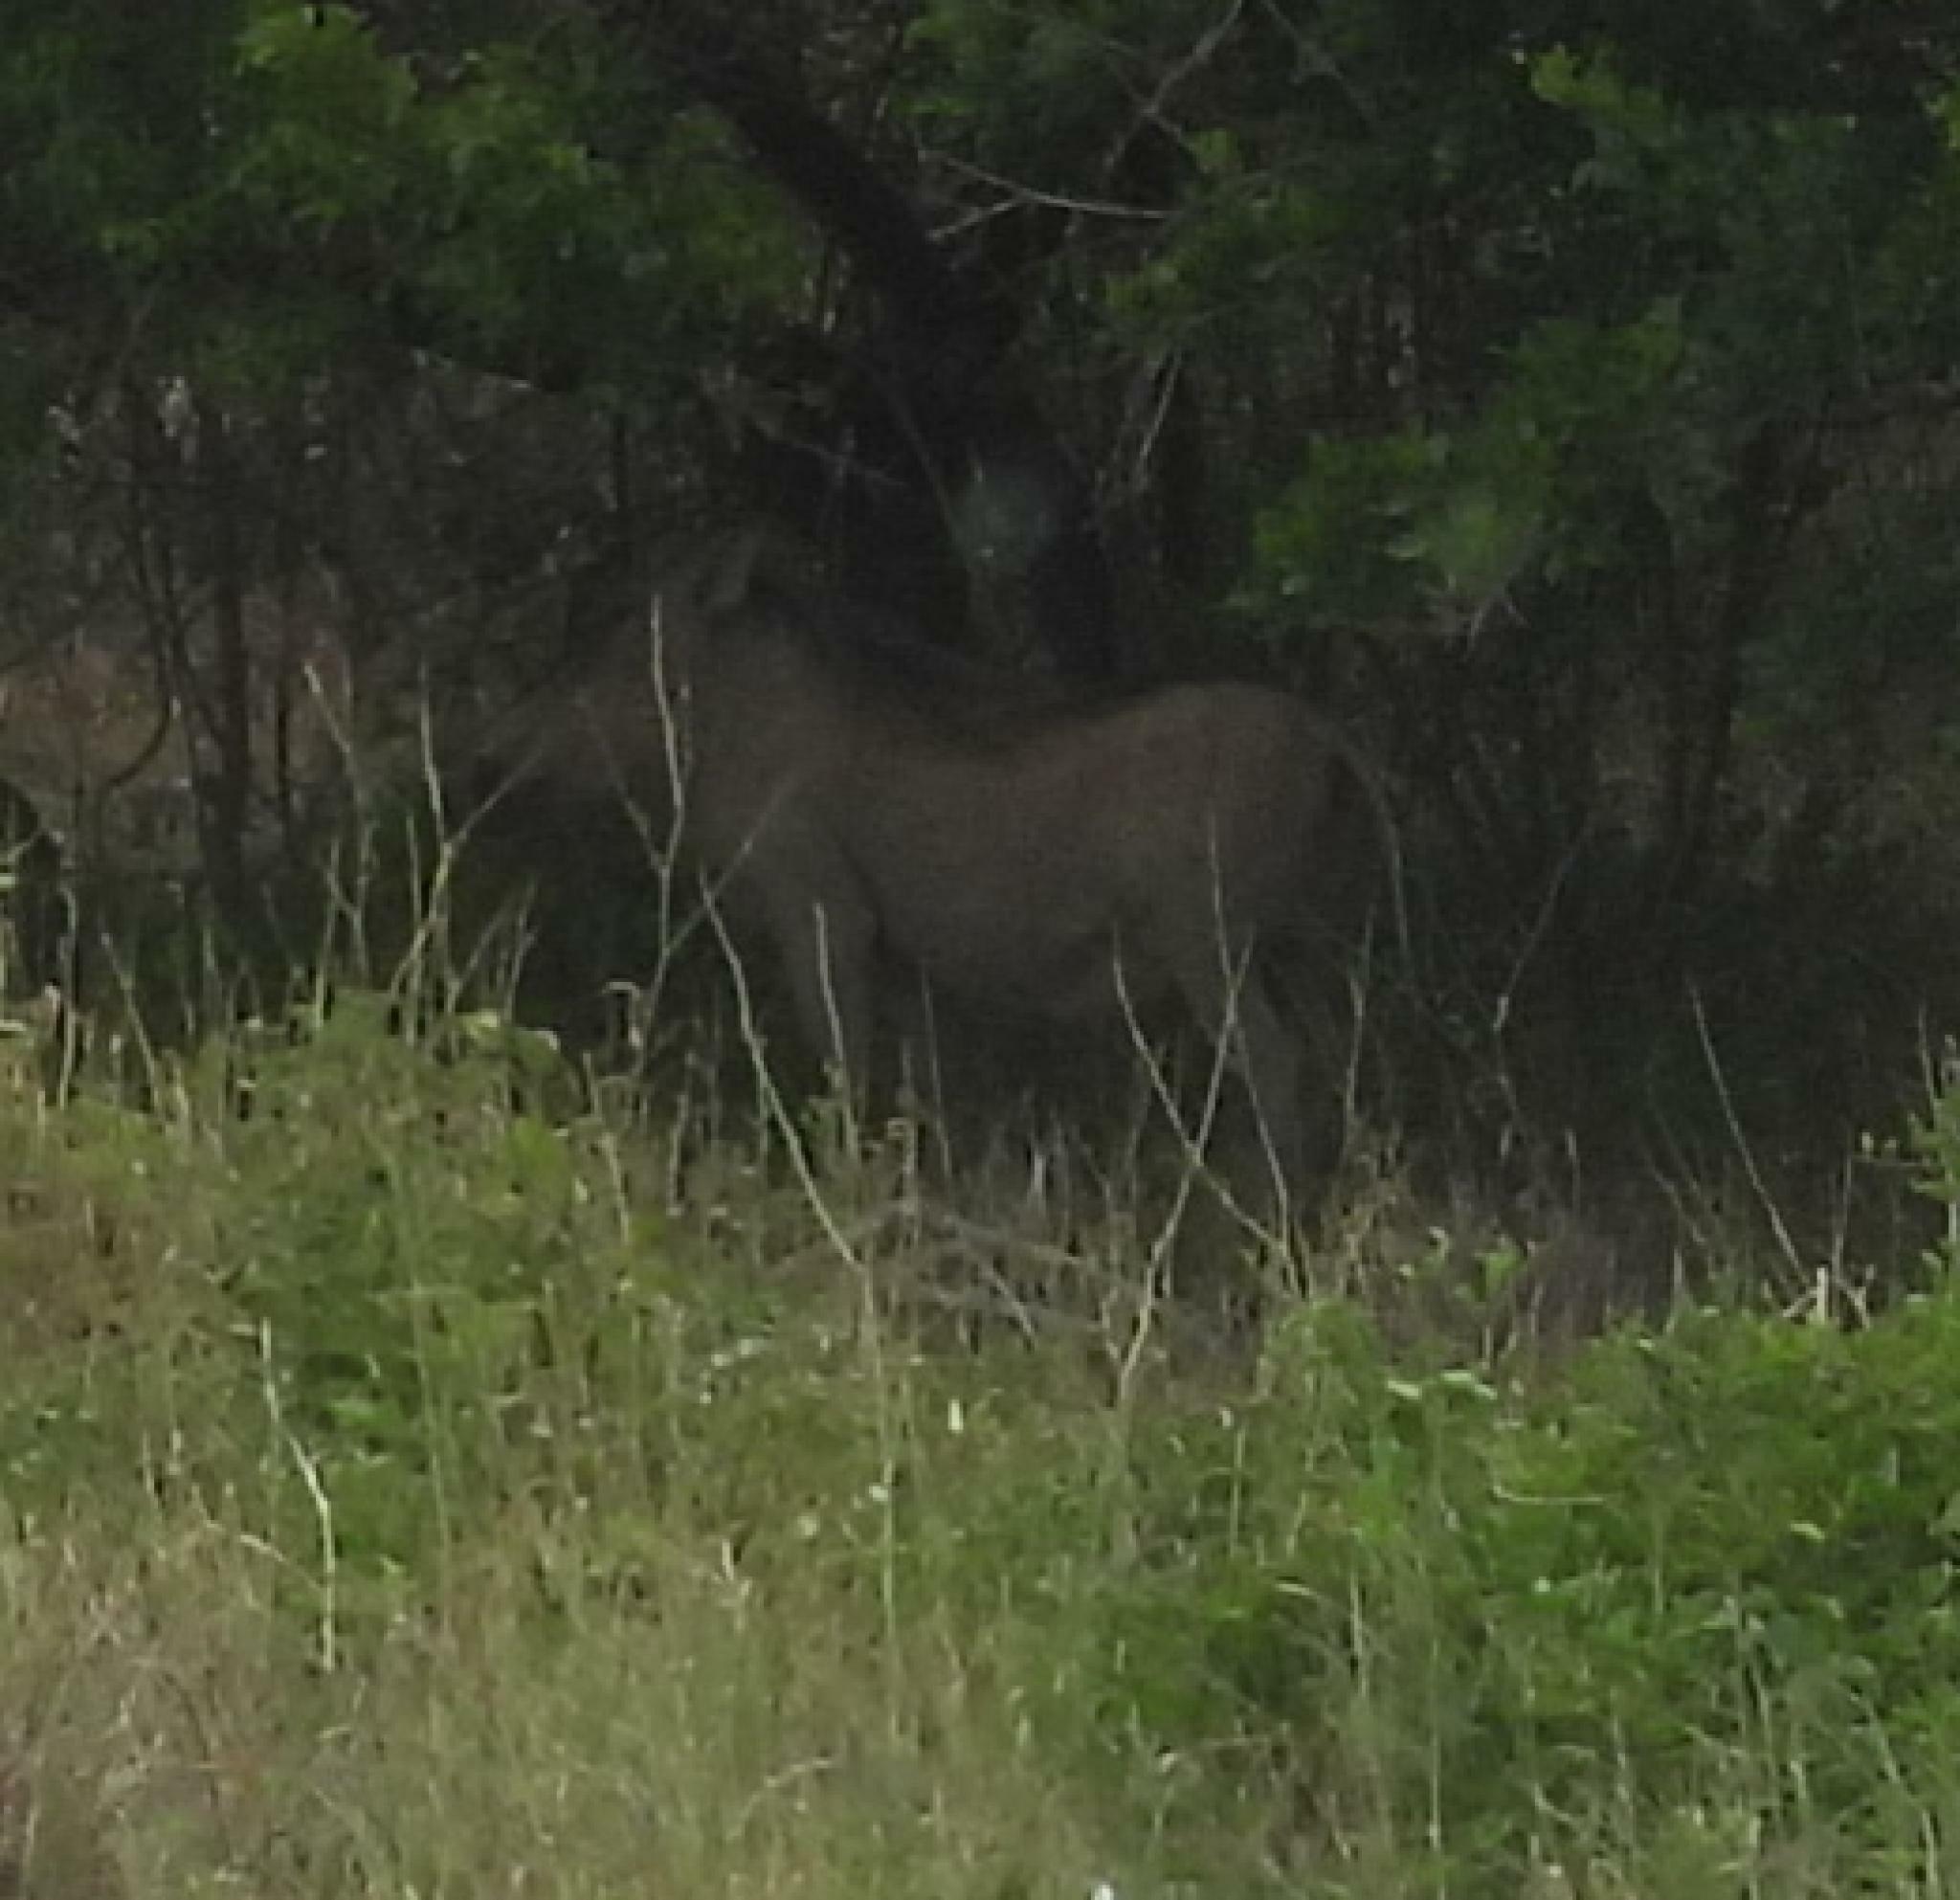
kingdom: Animalia
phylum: Chordata
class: Mammalia
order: Artiodactyla
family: Suidae
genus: Phacochoerus
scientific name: Phacochoerus africanus
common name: Common warthog
